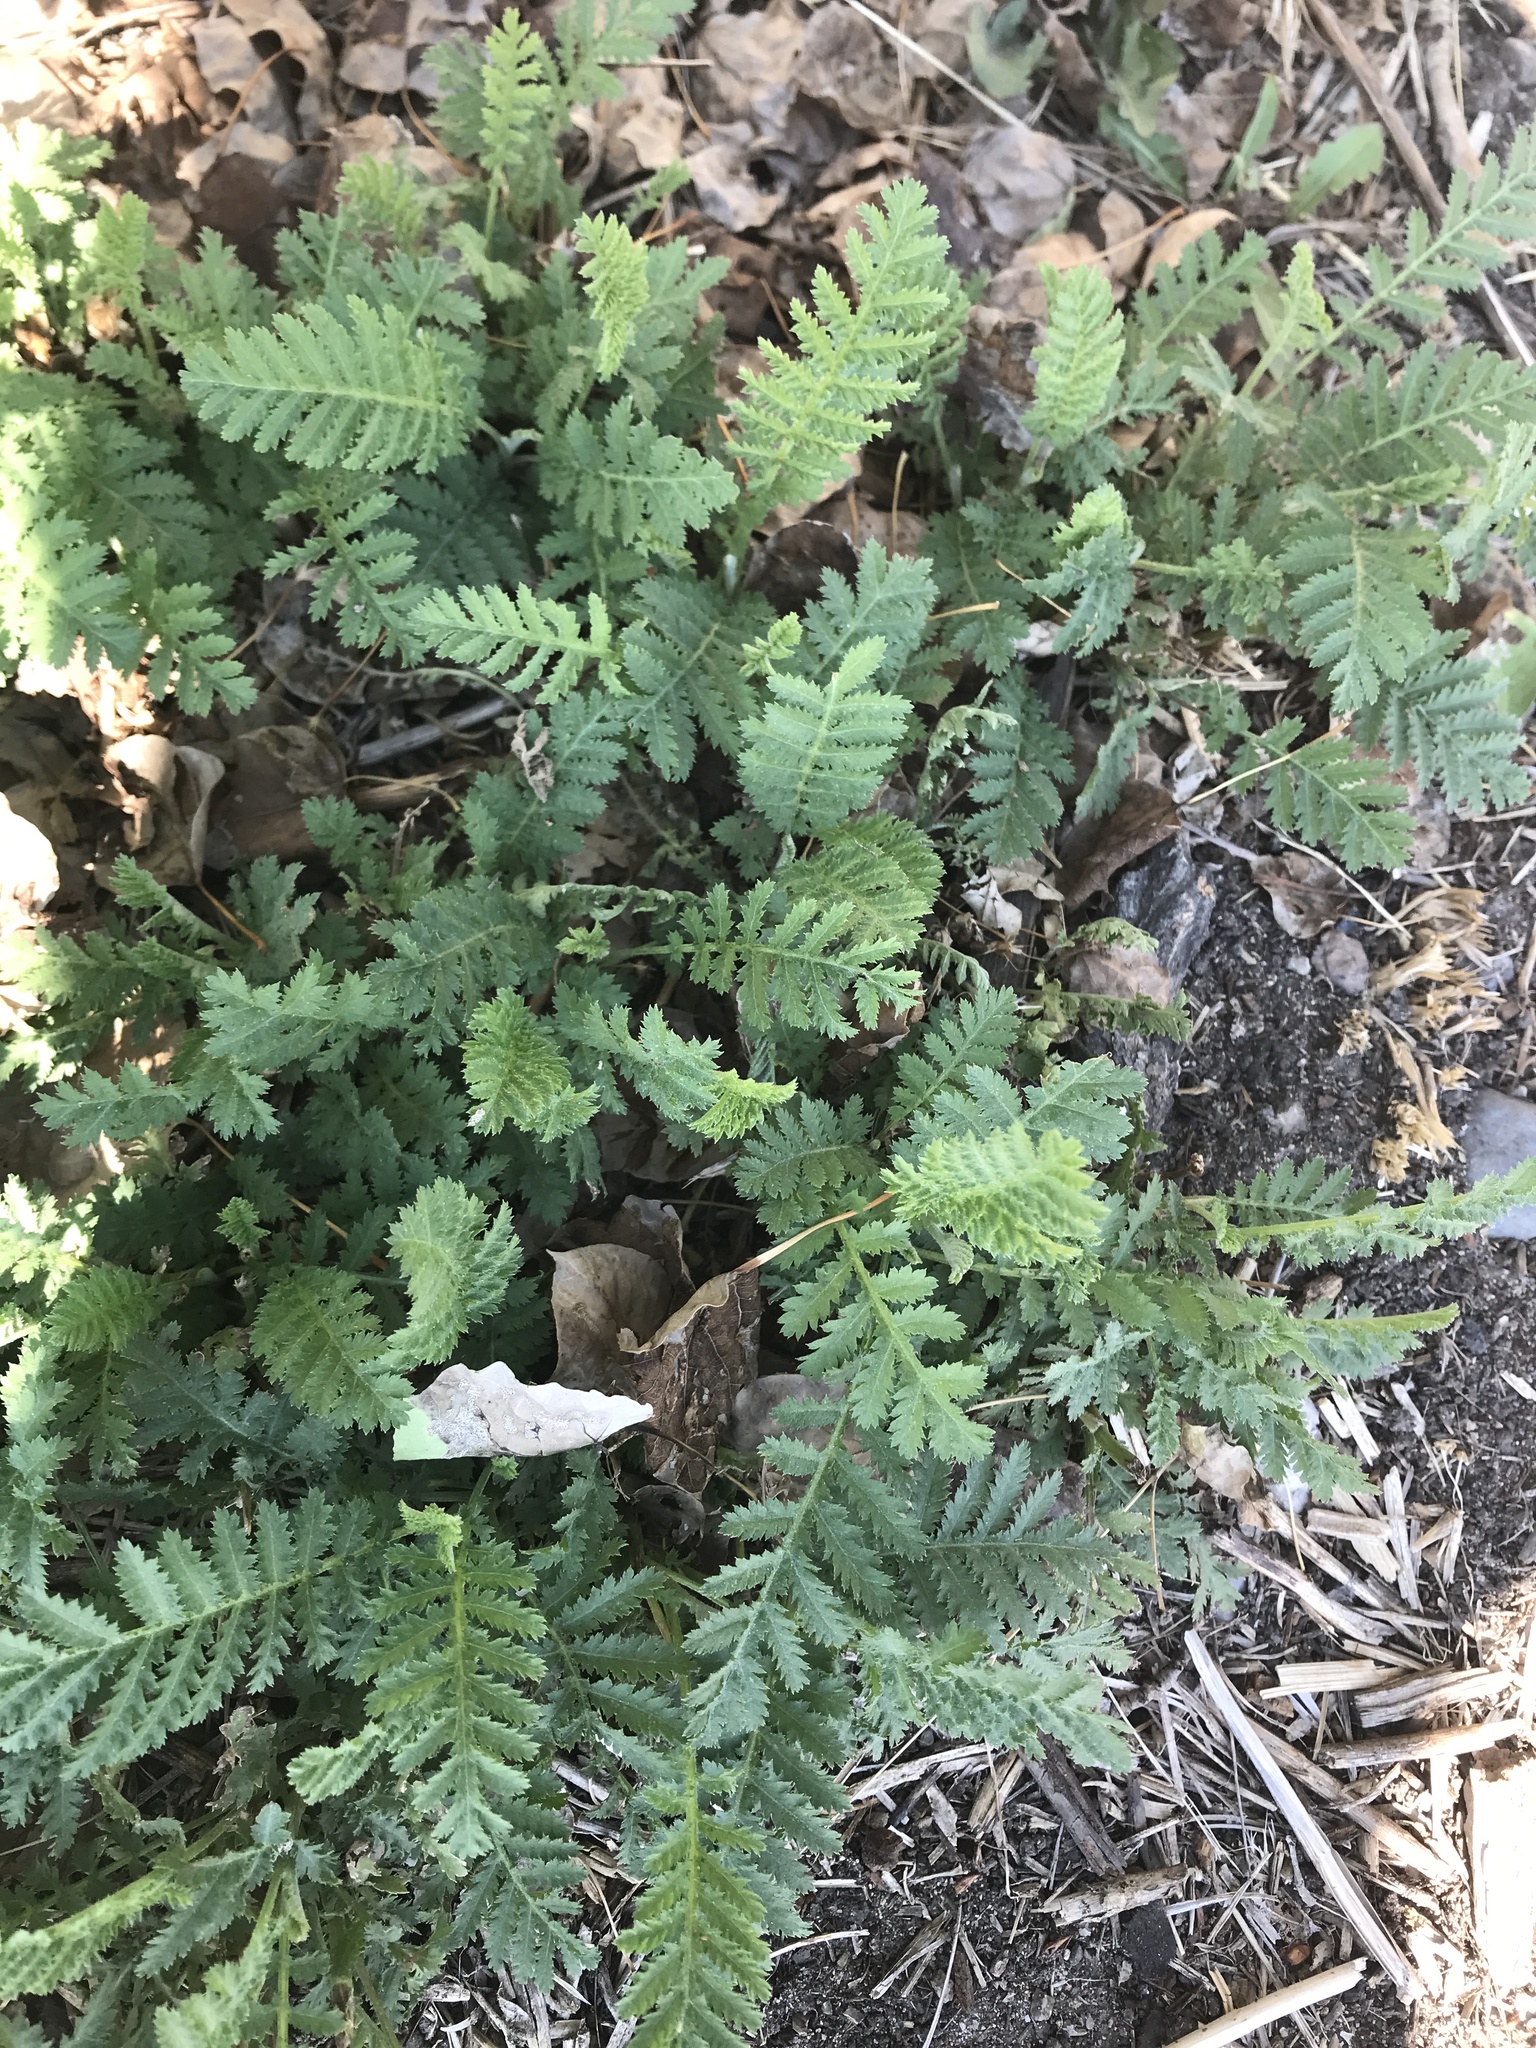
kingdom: Plantae
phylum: Tracheophyta
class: Magnoliopsida
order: Asterales
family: Asteraceae
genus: Tanacetum
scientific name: Tanacetum vulgare
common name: Common tansy
